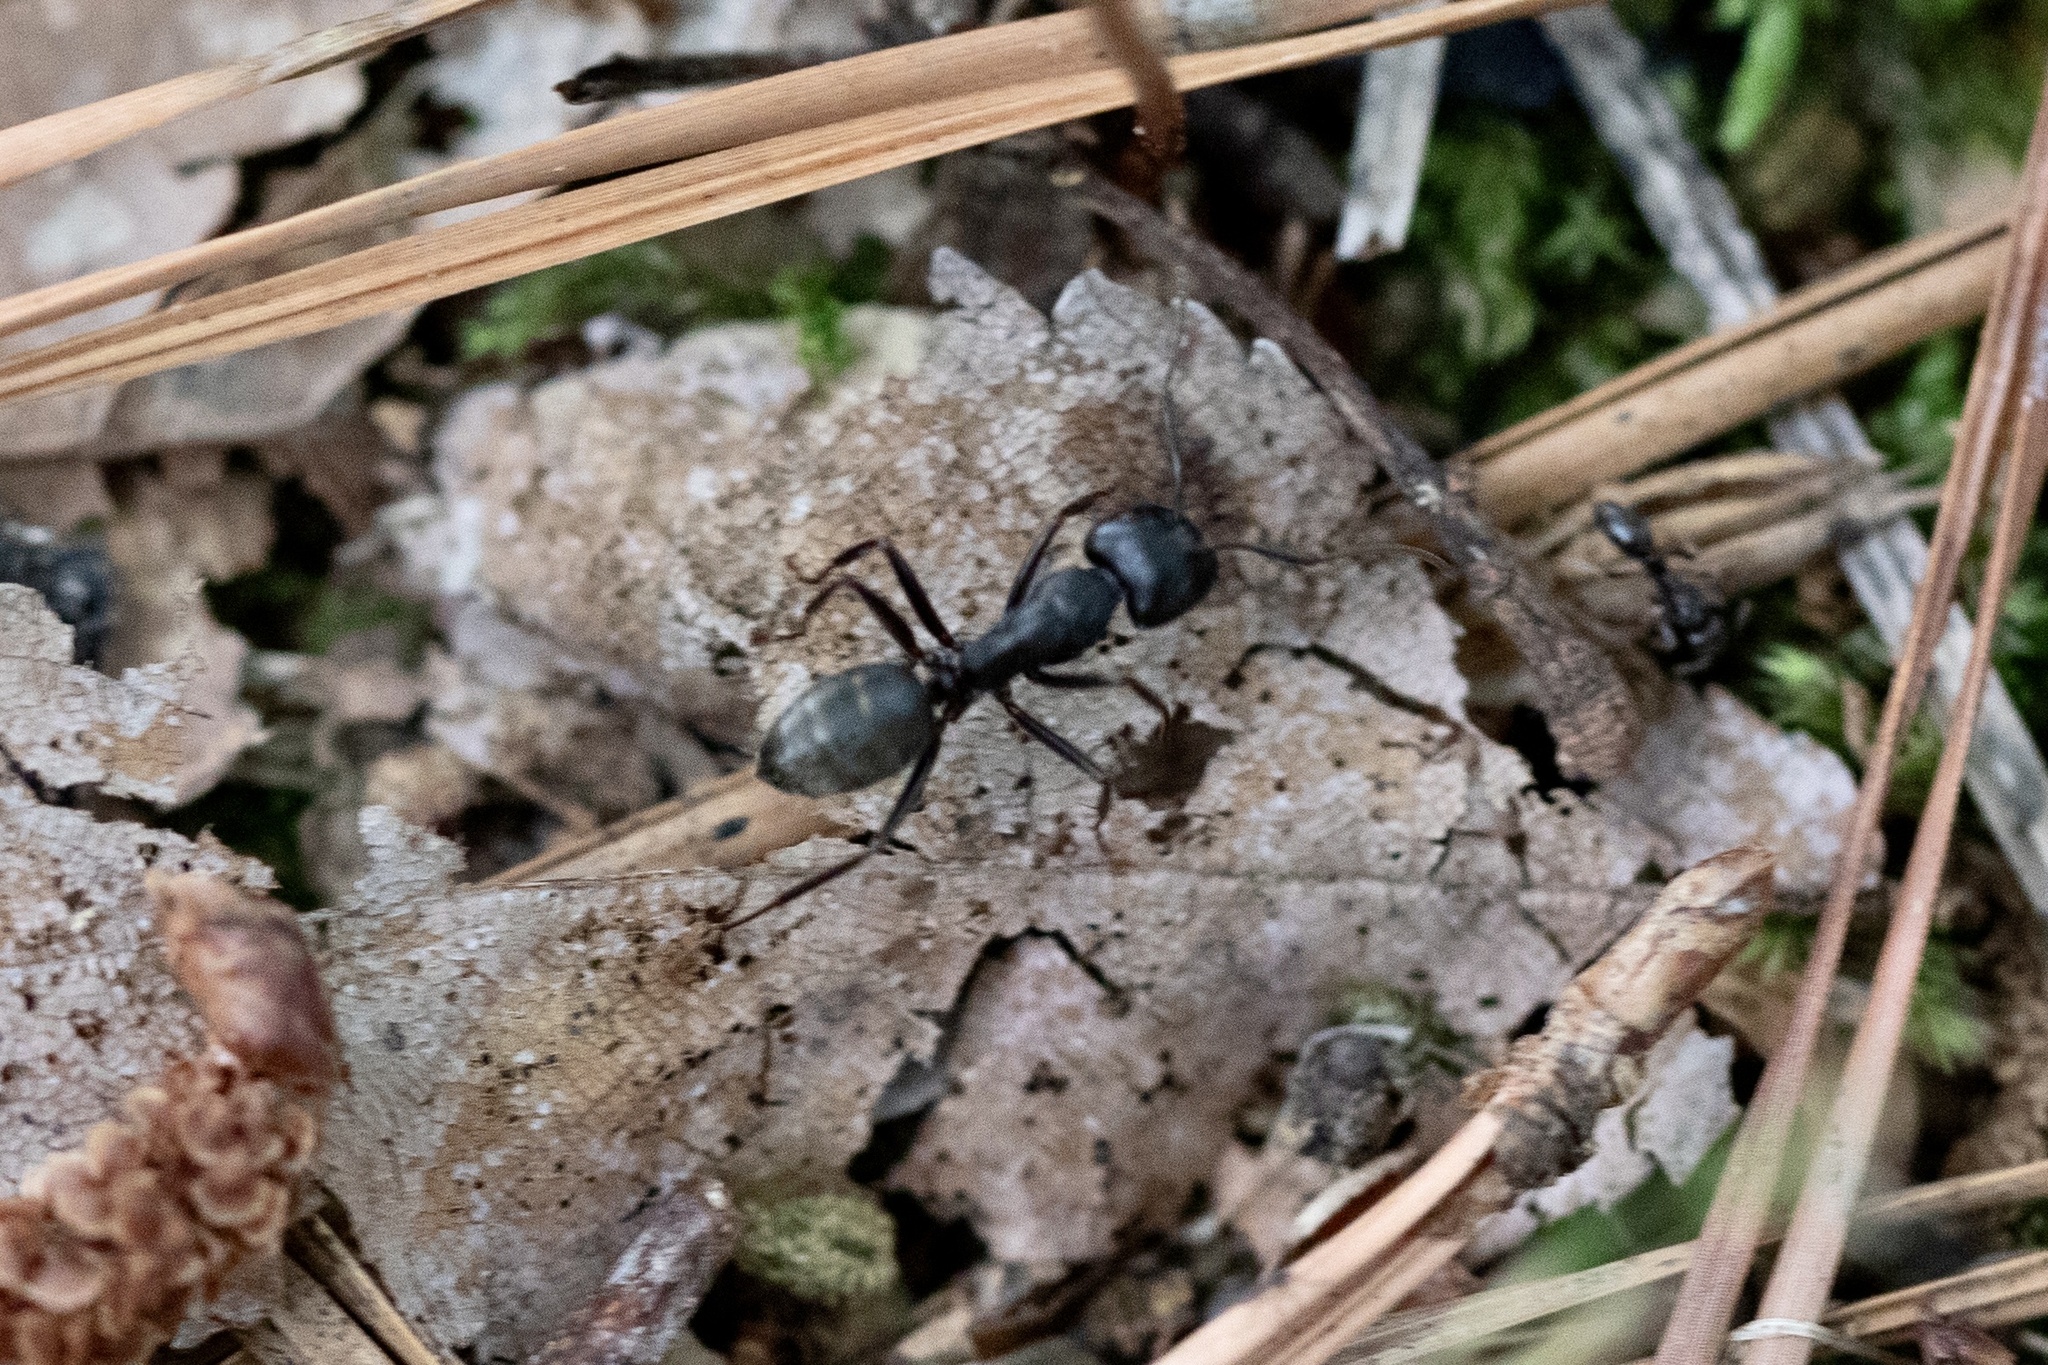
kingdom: Animalia
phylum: Arthropoda
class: Insecta
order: Hymenoptera
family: Formicidae
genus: Camponotus
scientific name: Camponotus pennsylvanicus
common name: Black carpenter ant
